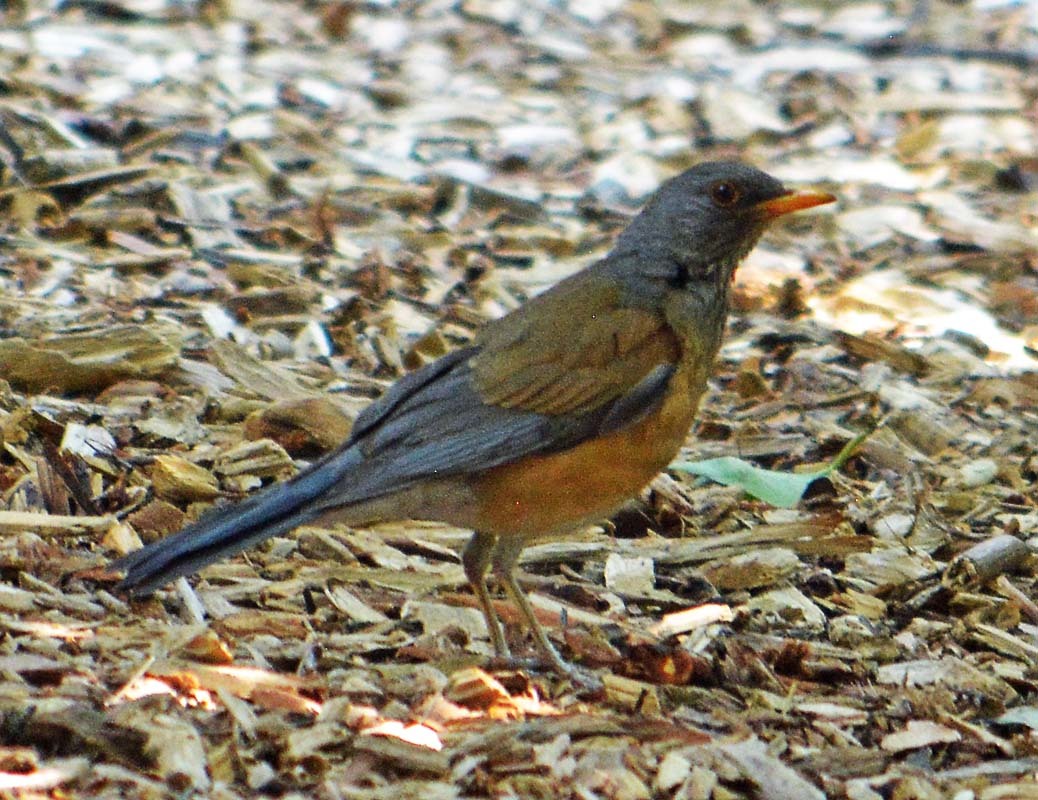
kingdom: Animalia
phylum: Chordata
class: Aves
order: Passeriformes
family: Turdidae
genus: Turdus
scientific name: Turdus rufopalliatus
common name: Rufous-backed robin
